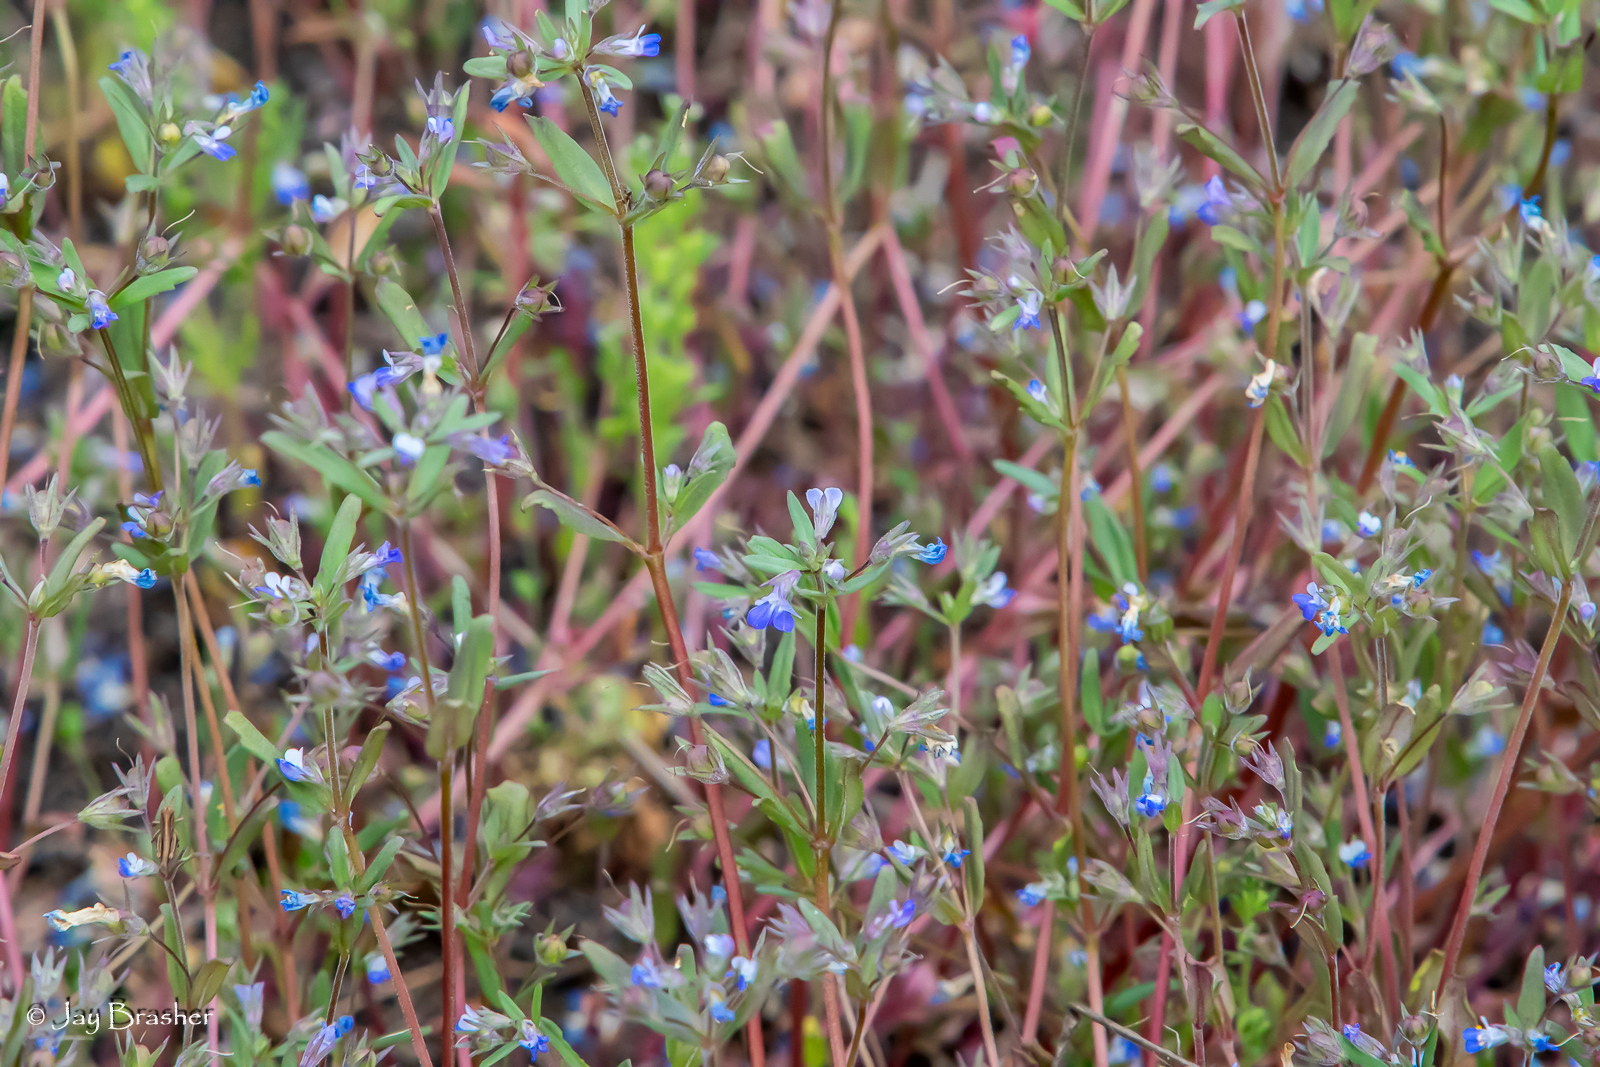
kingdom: Plantae
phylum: Tracheophyta
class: Magnoliopsida
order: Lamiales
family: Plantaginaceae
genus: Collinsia
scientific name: Collinsia parviflora
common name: Blue-lips
